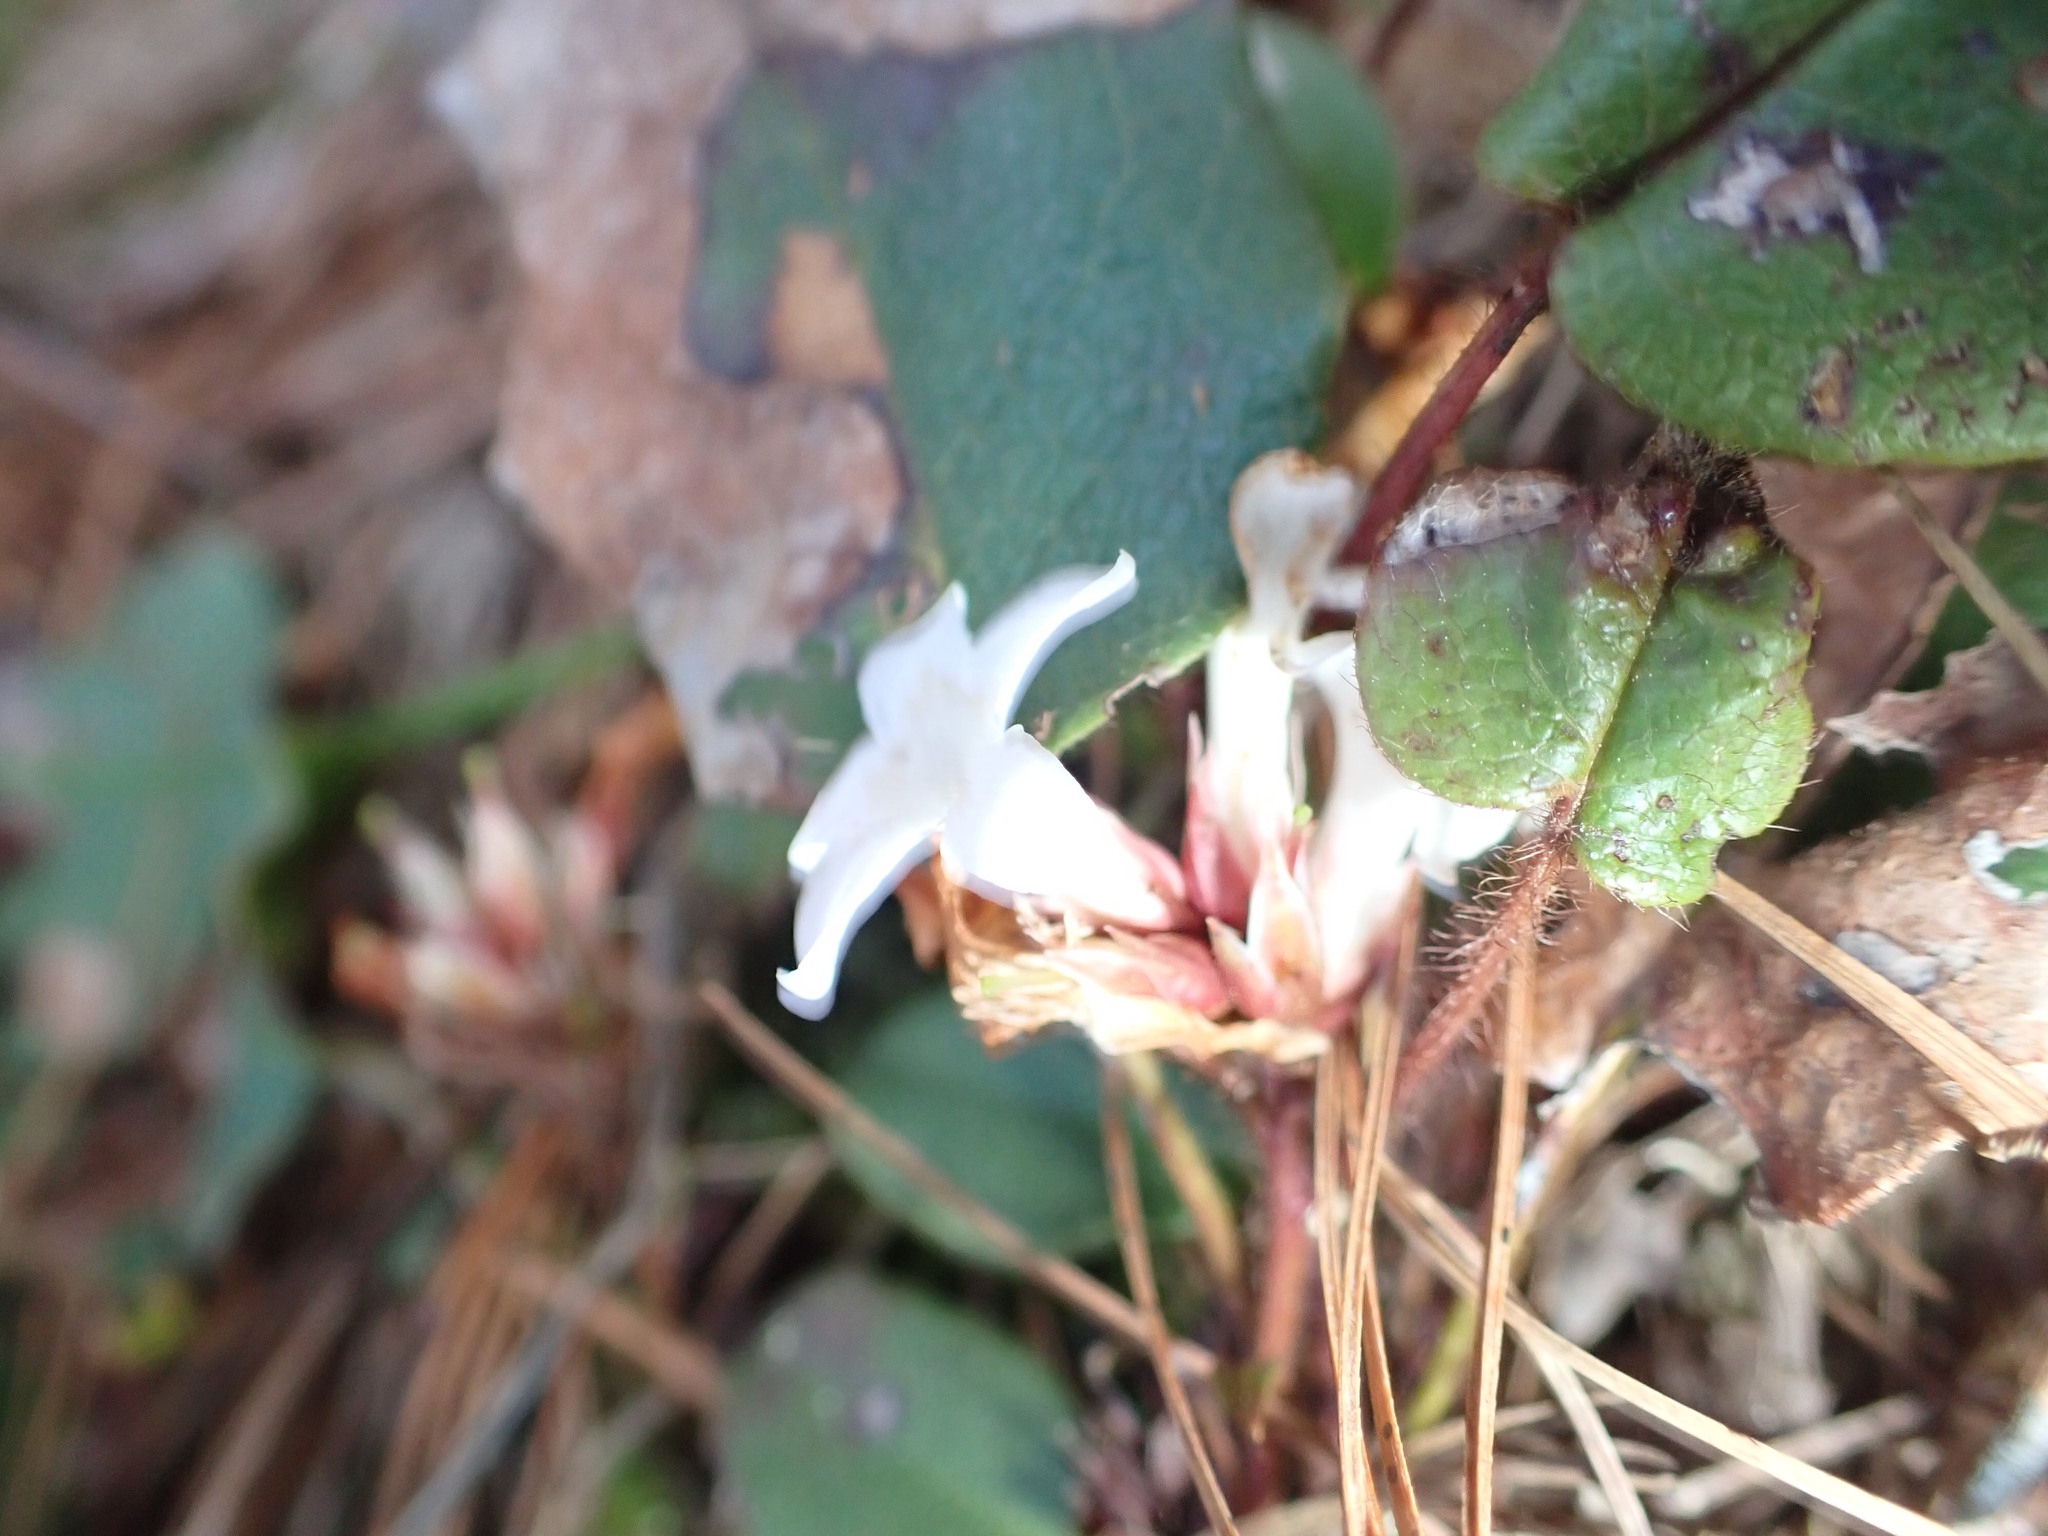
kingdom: Plantae
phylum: Tracheophyta
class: Magnoliopsida
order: Ericales
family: Ericaceae
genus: Epigaea
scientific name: Epigaea repens
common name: Gravelroot
